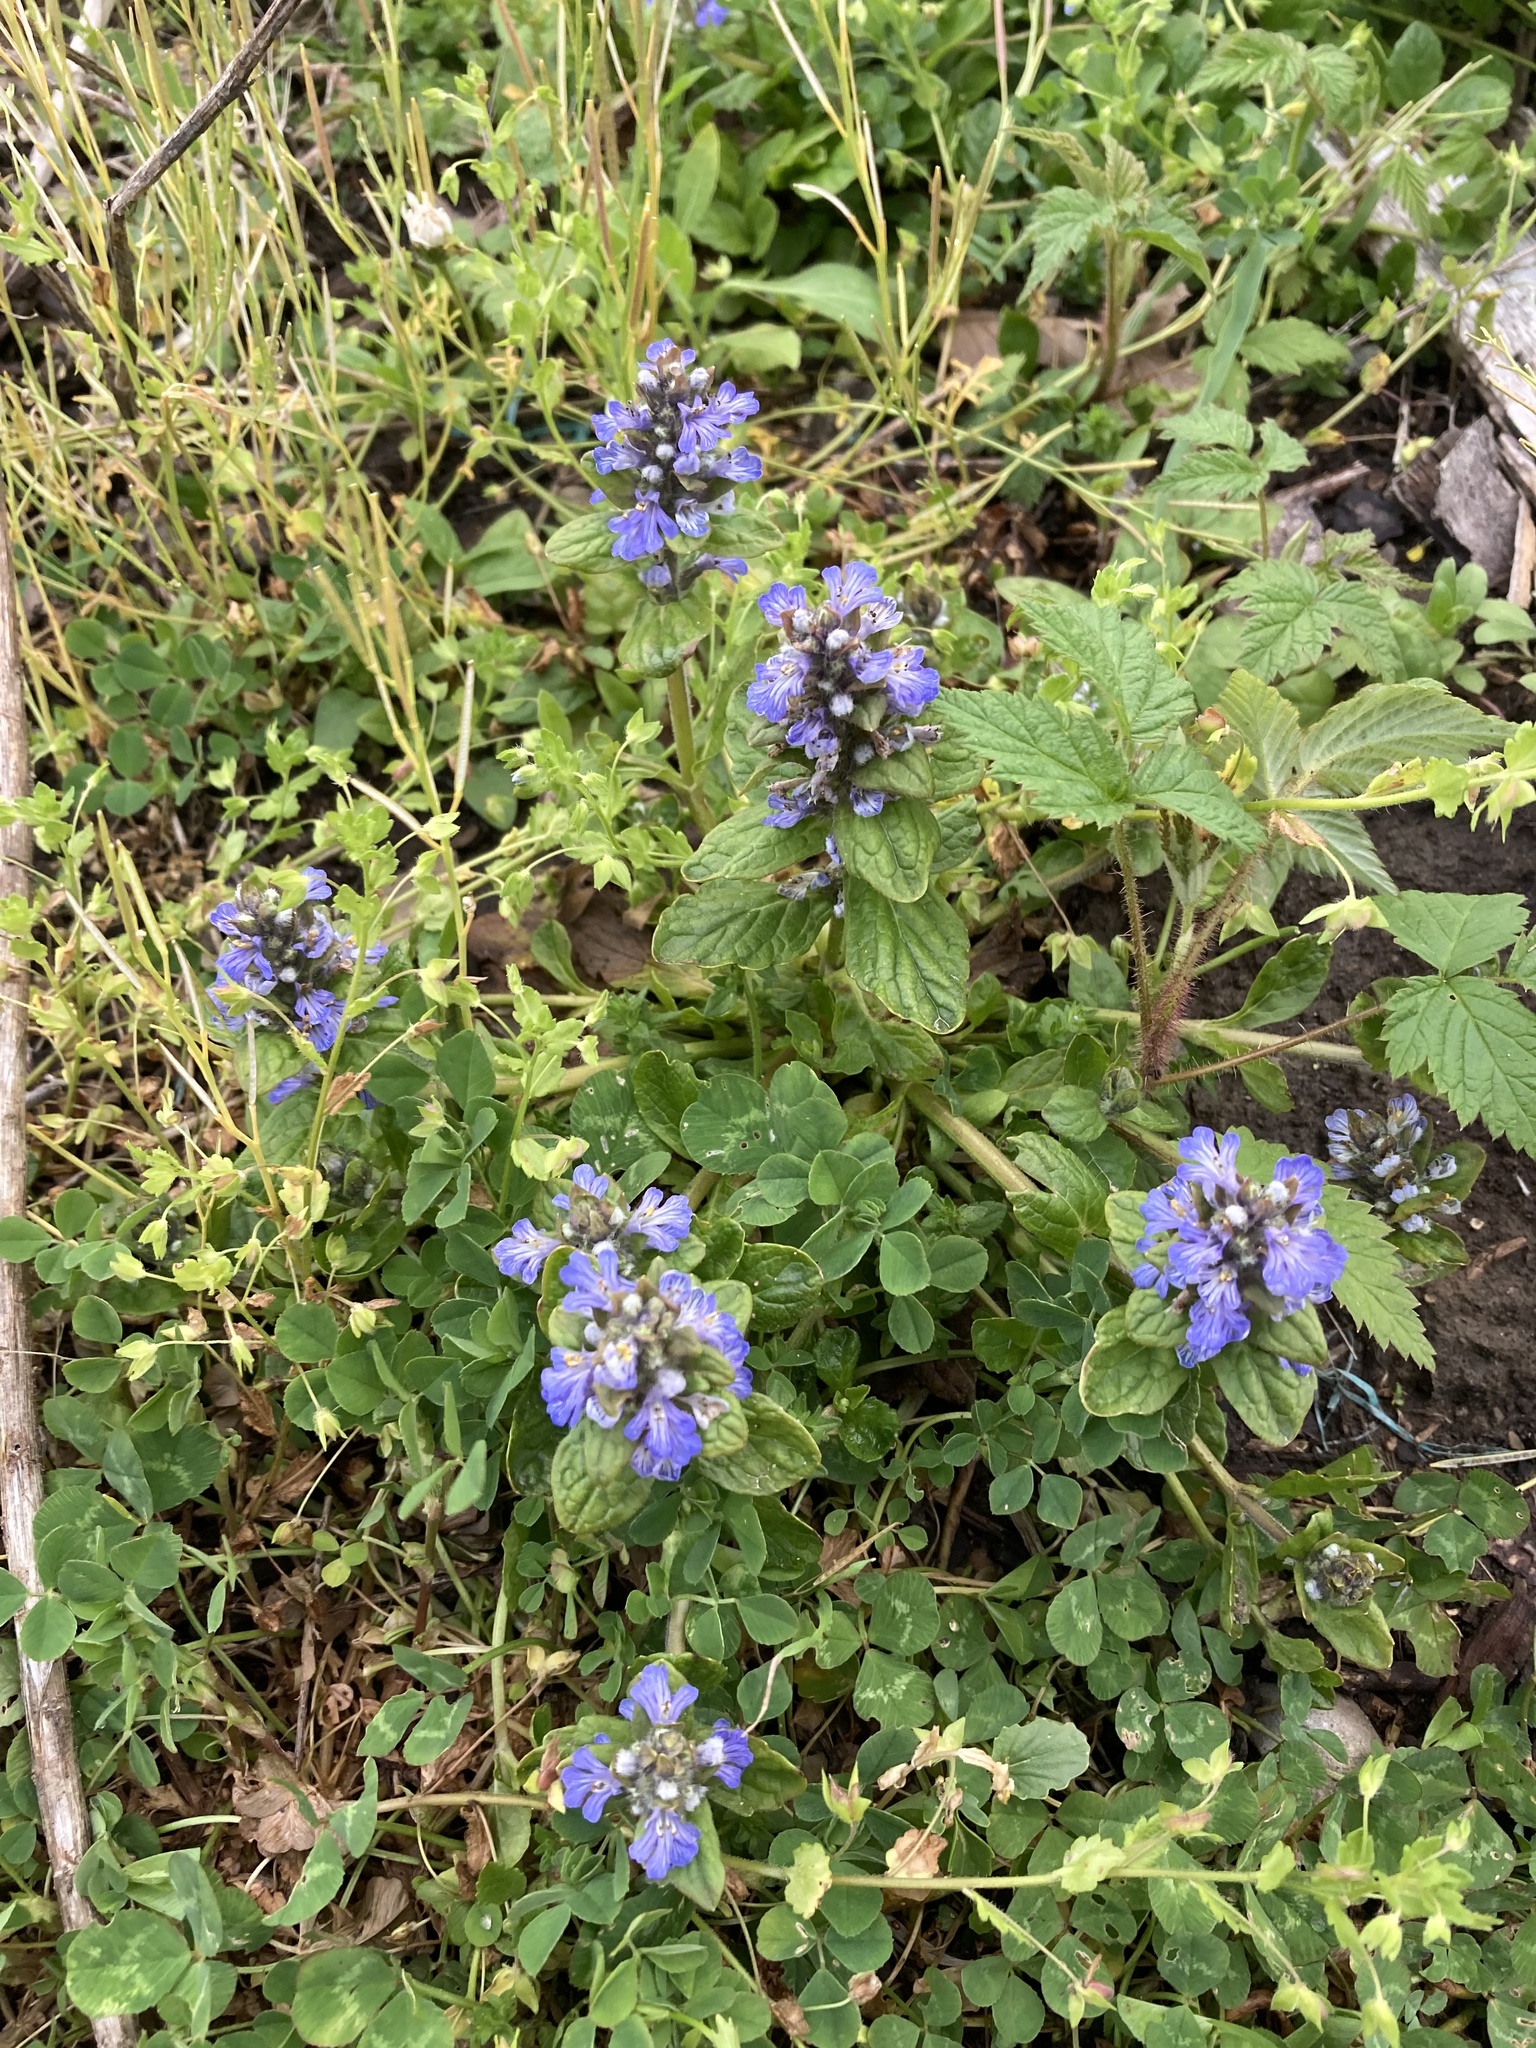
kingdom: Plantae
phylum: Tracheophyta
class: Magnoliopsida
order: Lamiales
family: Lamiaceae
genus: Ajuga
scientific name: Ajuga reptans
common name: Bugle
